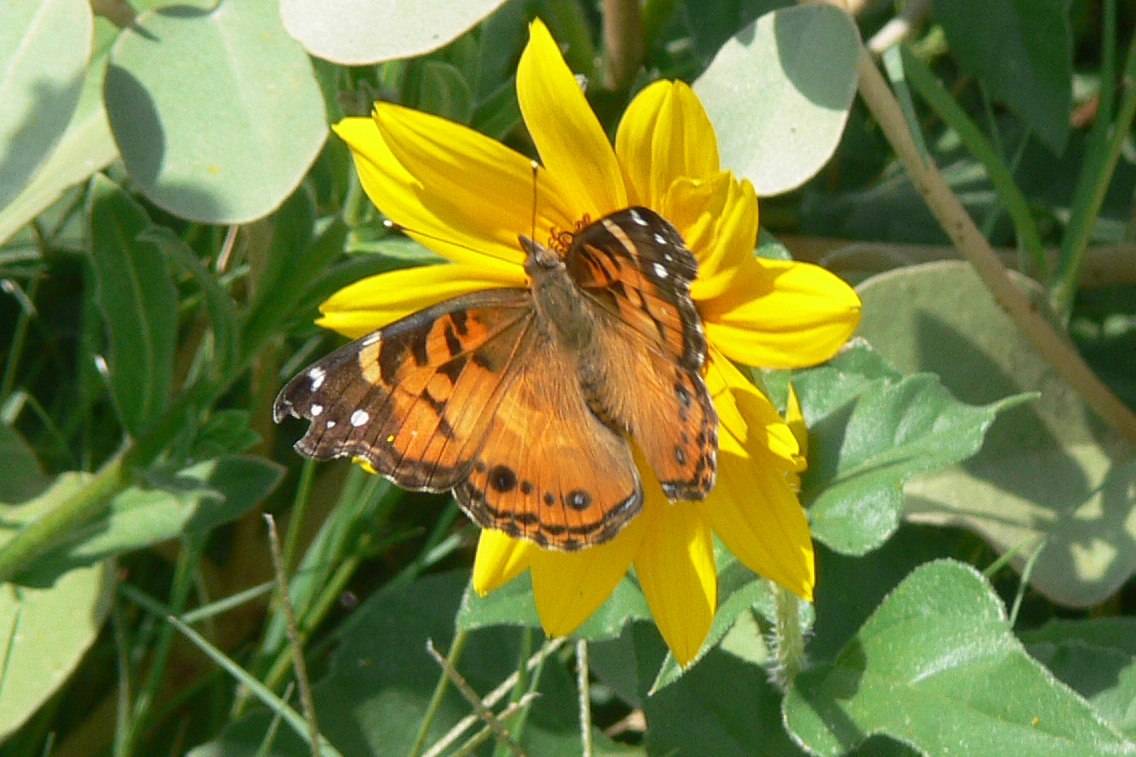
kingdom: Animalia
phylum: Arthropoda
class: Insecta
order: Lepidoptera
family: Nymphalidae
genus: Vanessa
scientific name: Vanessa virginiensis
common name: American lady
